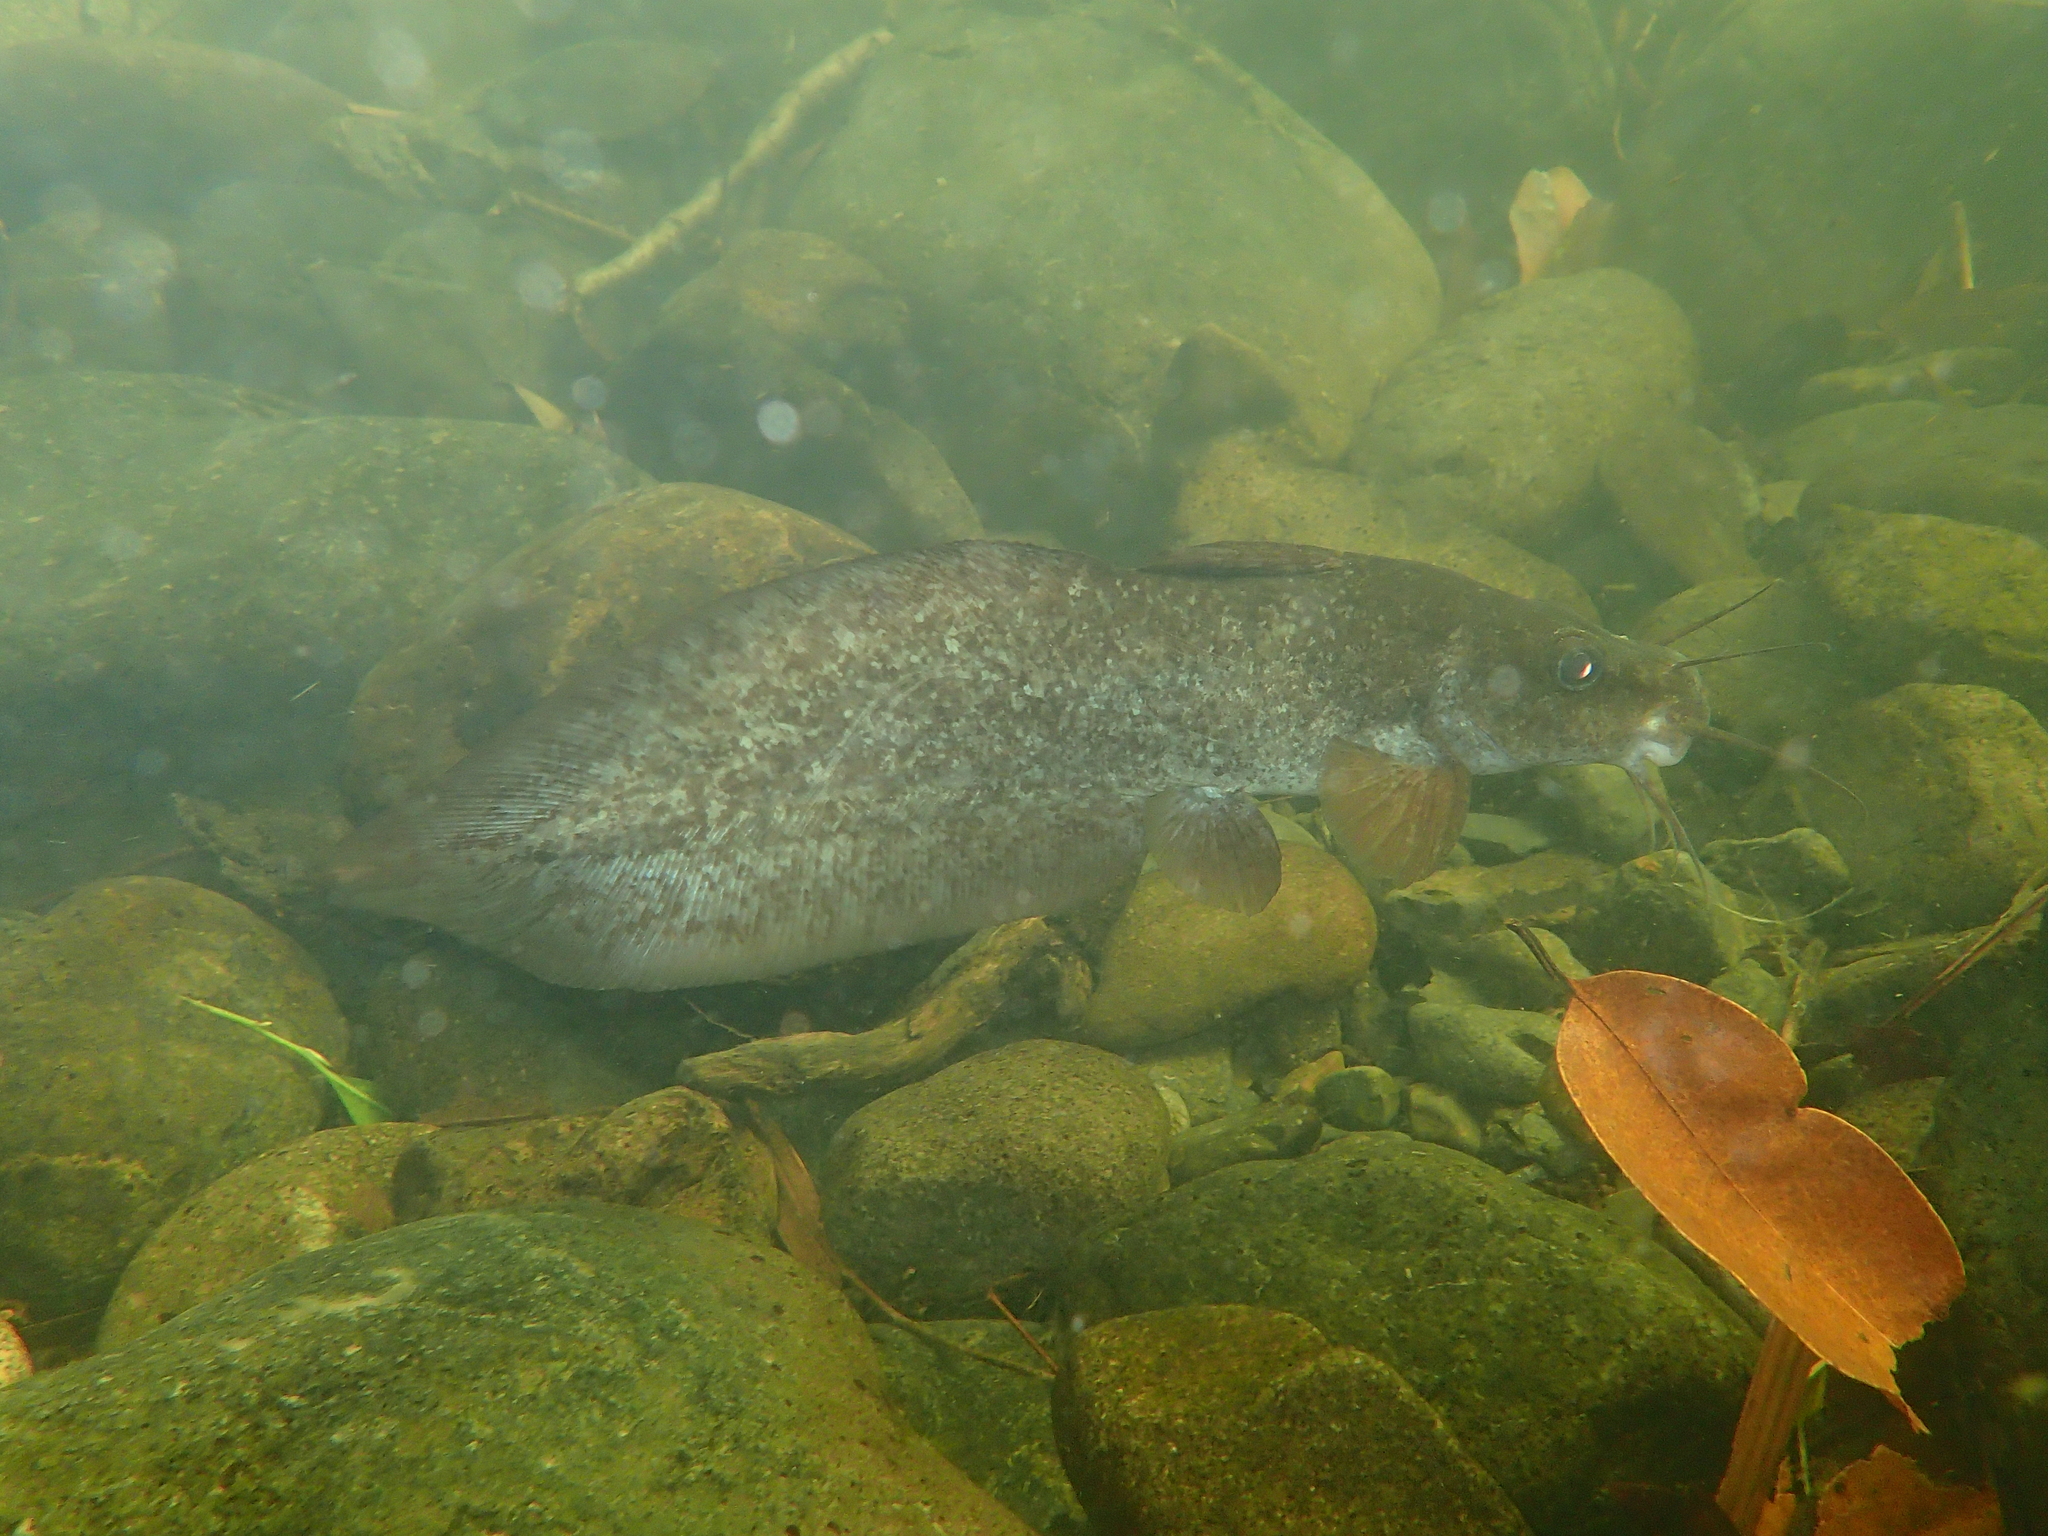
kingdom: Animalia
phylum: Chordata
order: Siluriformes
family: Plotosidae
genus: Tandanus
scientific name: Tandanus tropicanus
